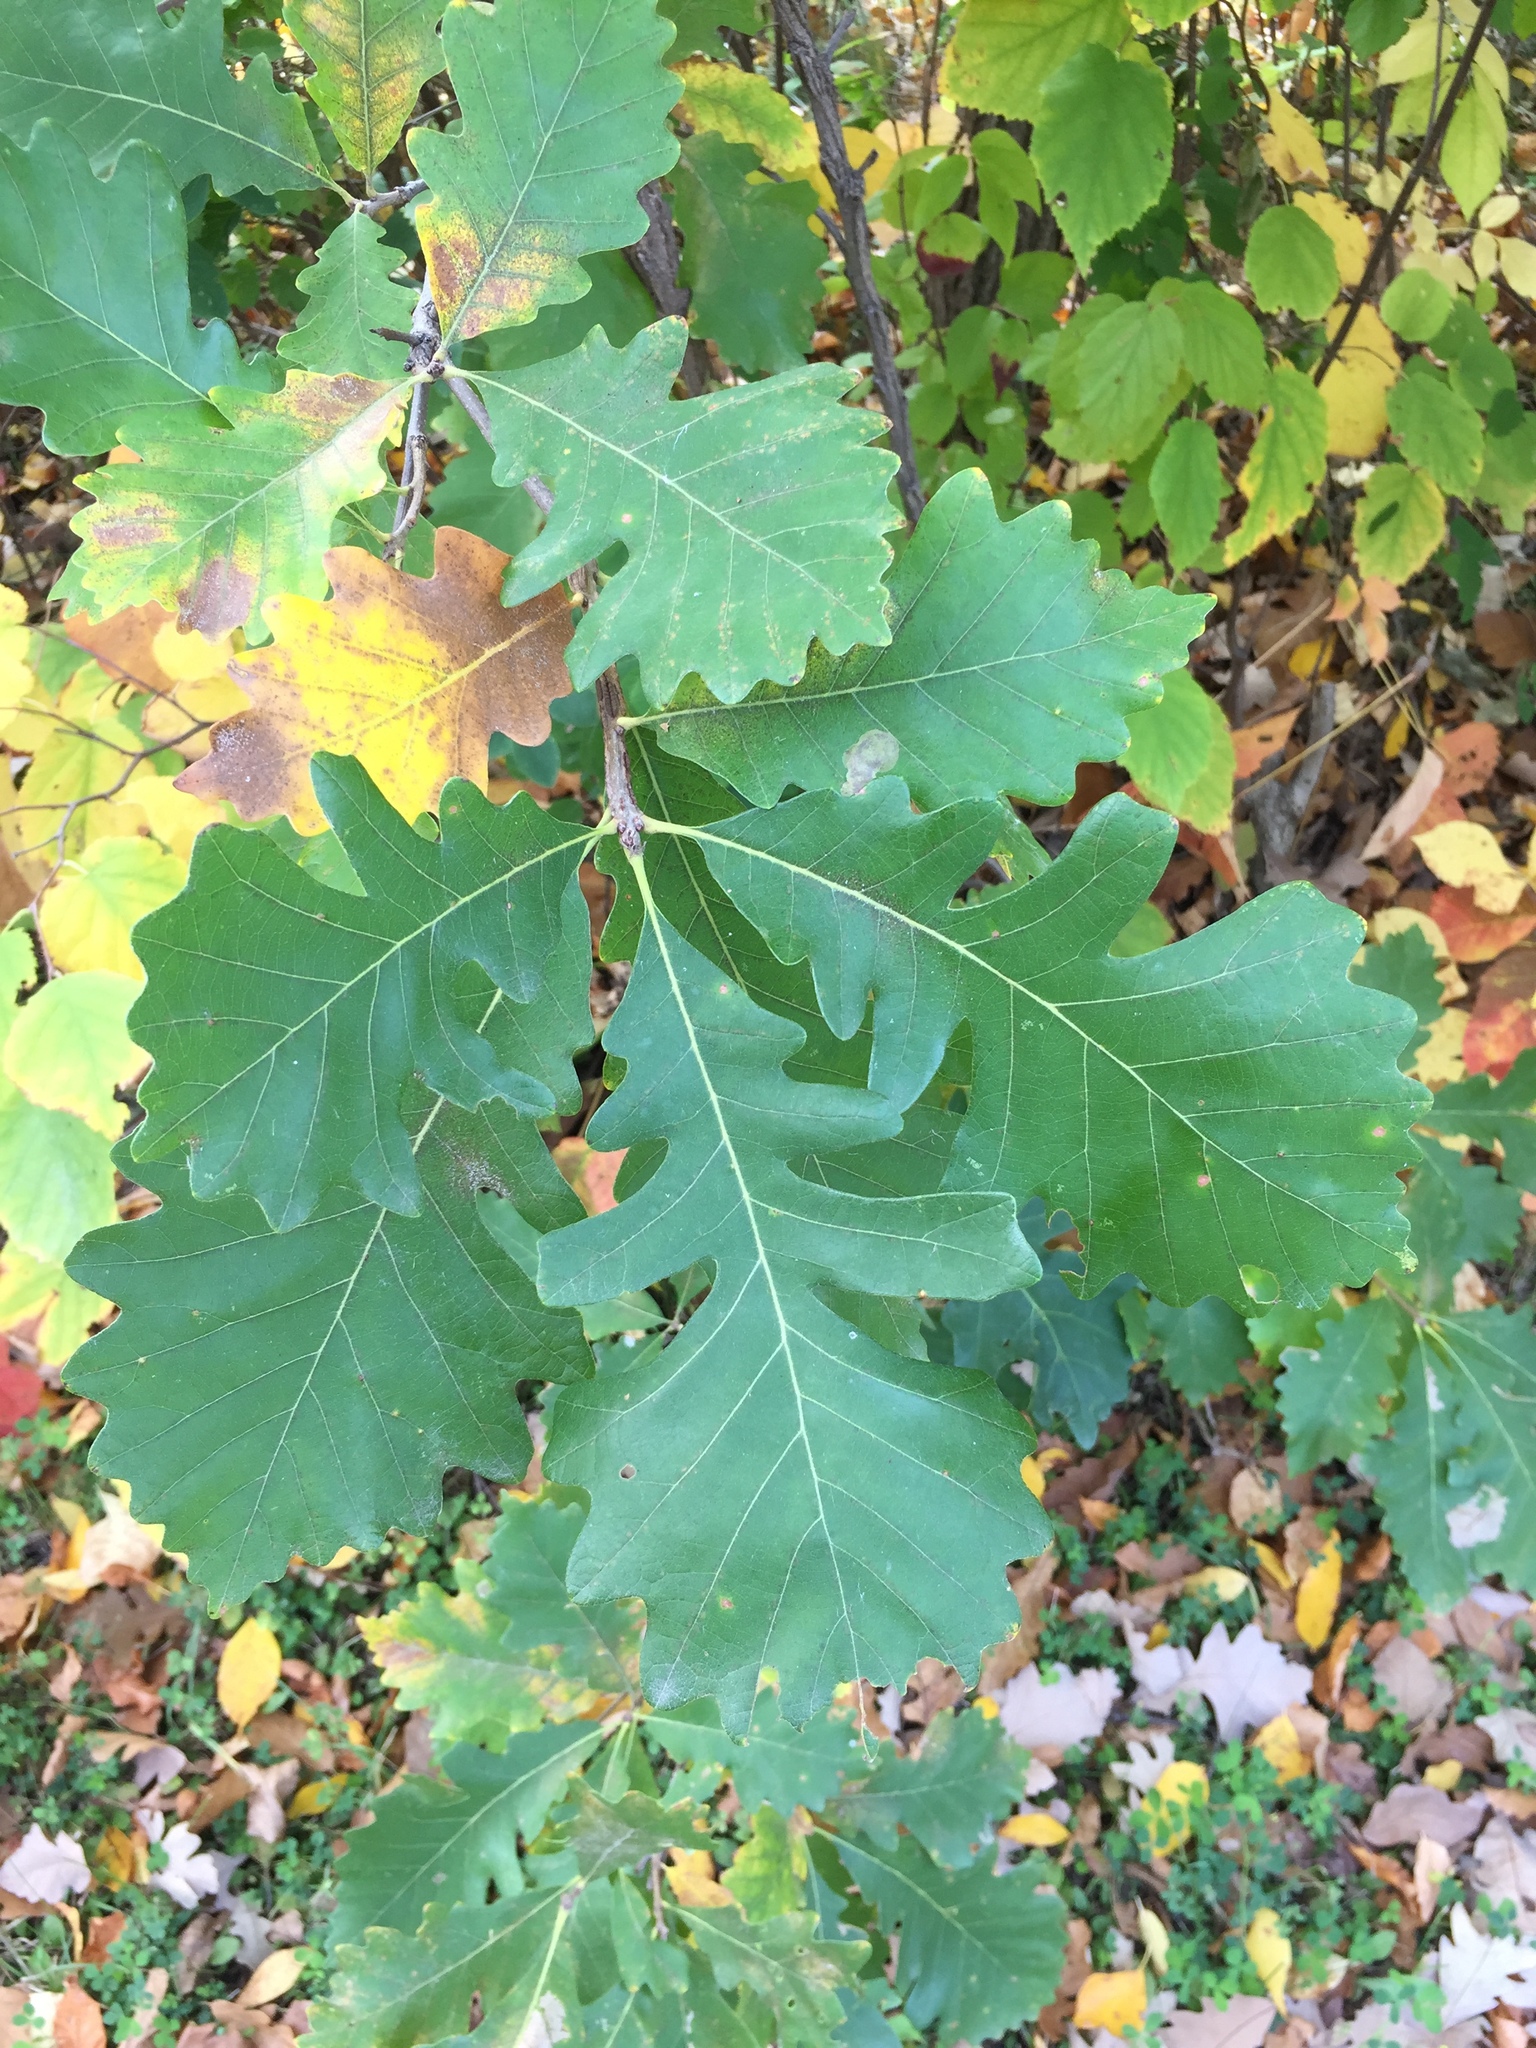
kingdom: Plantae
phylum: Tracheophyta
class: Magnoliopsida
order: Fagales
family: Fagaceae
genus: Quercus
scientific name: Quercus macrocarpa
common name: Bur oak
